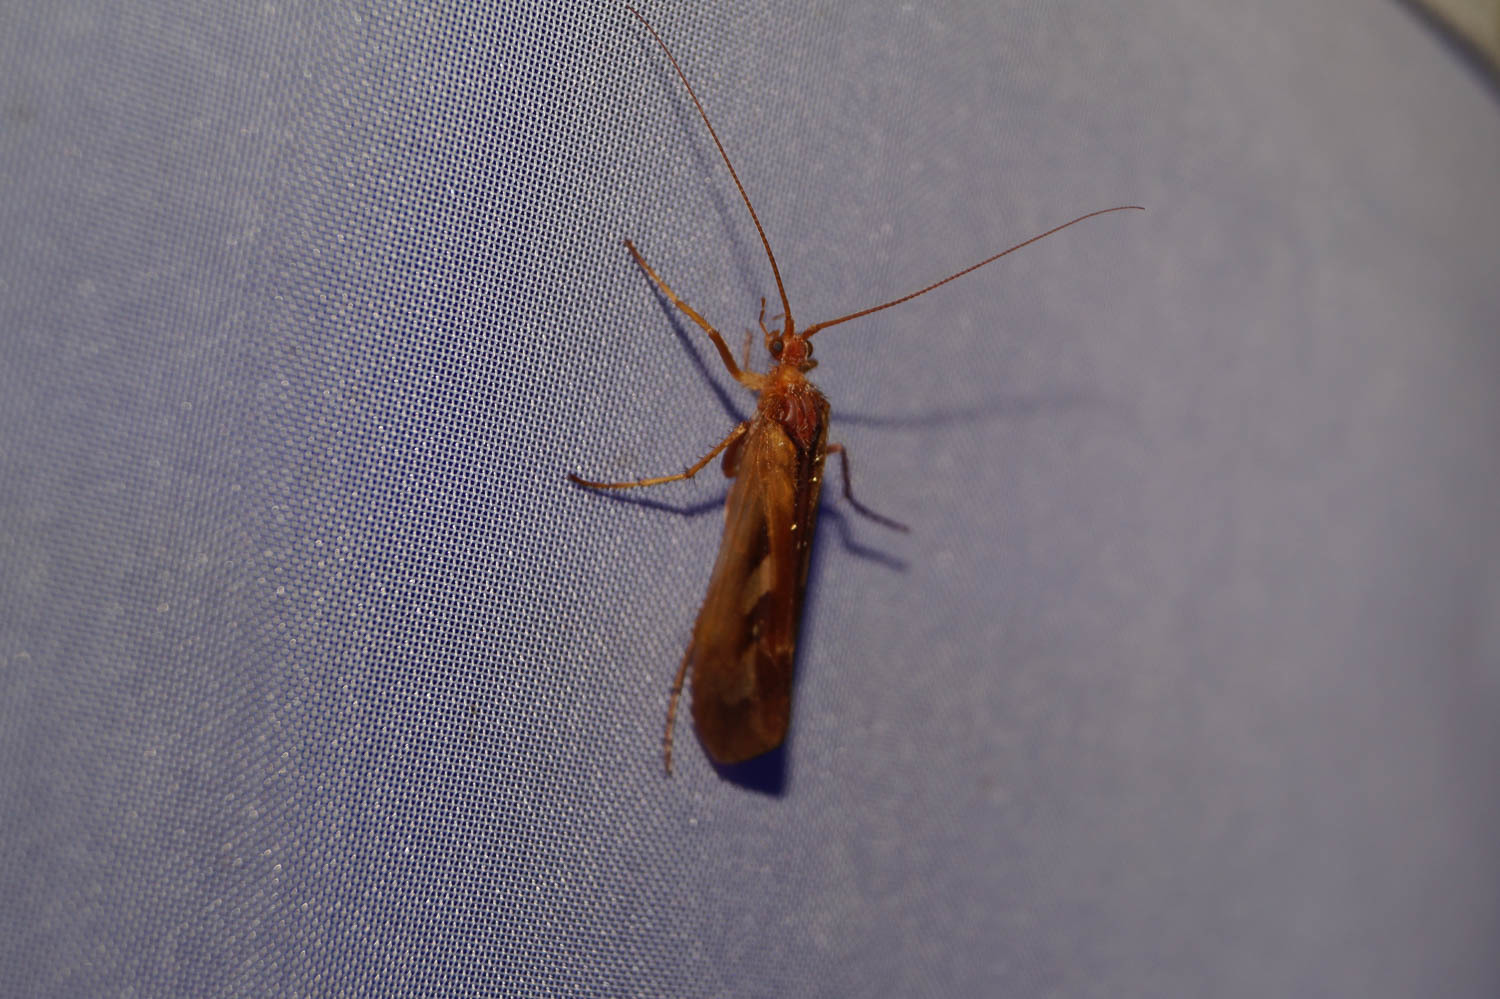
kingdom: Animalia
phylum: Arthropoda
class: Insecta
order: Trichoptera
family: Limnephilidae
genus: Limnephilus
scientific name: Limnephilus rhombicus
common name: Diamond northern caddisfly
